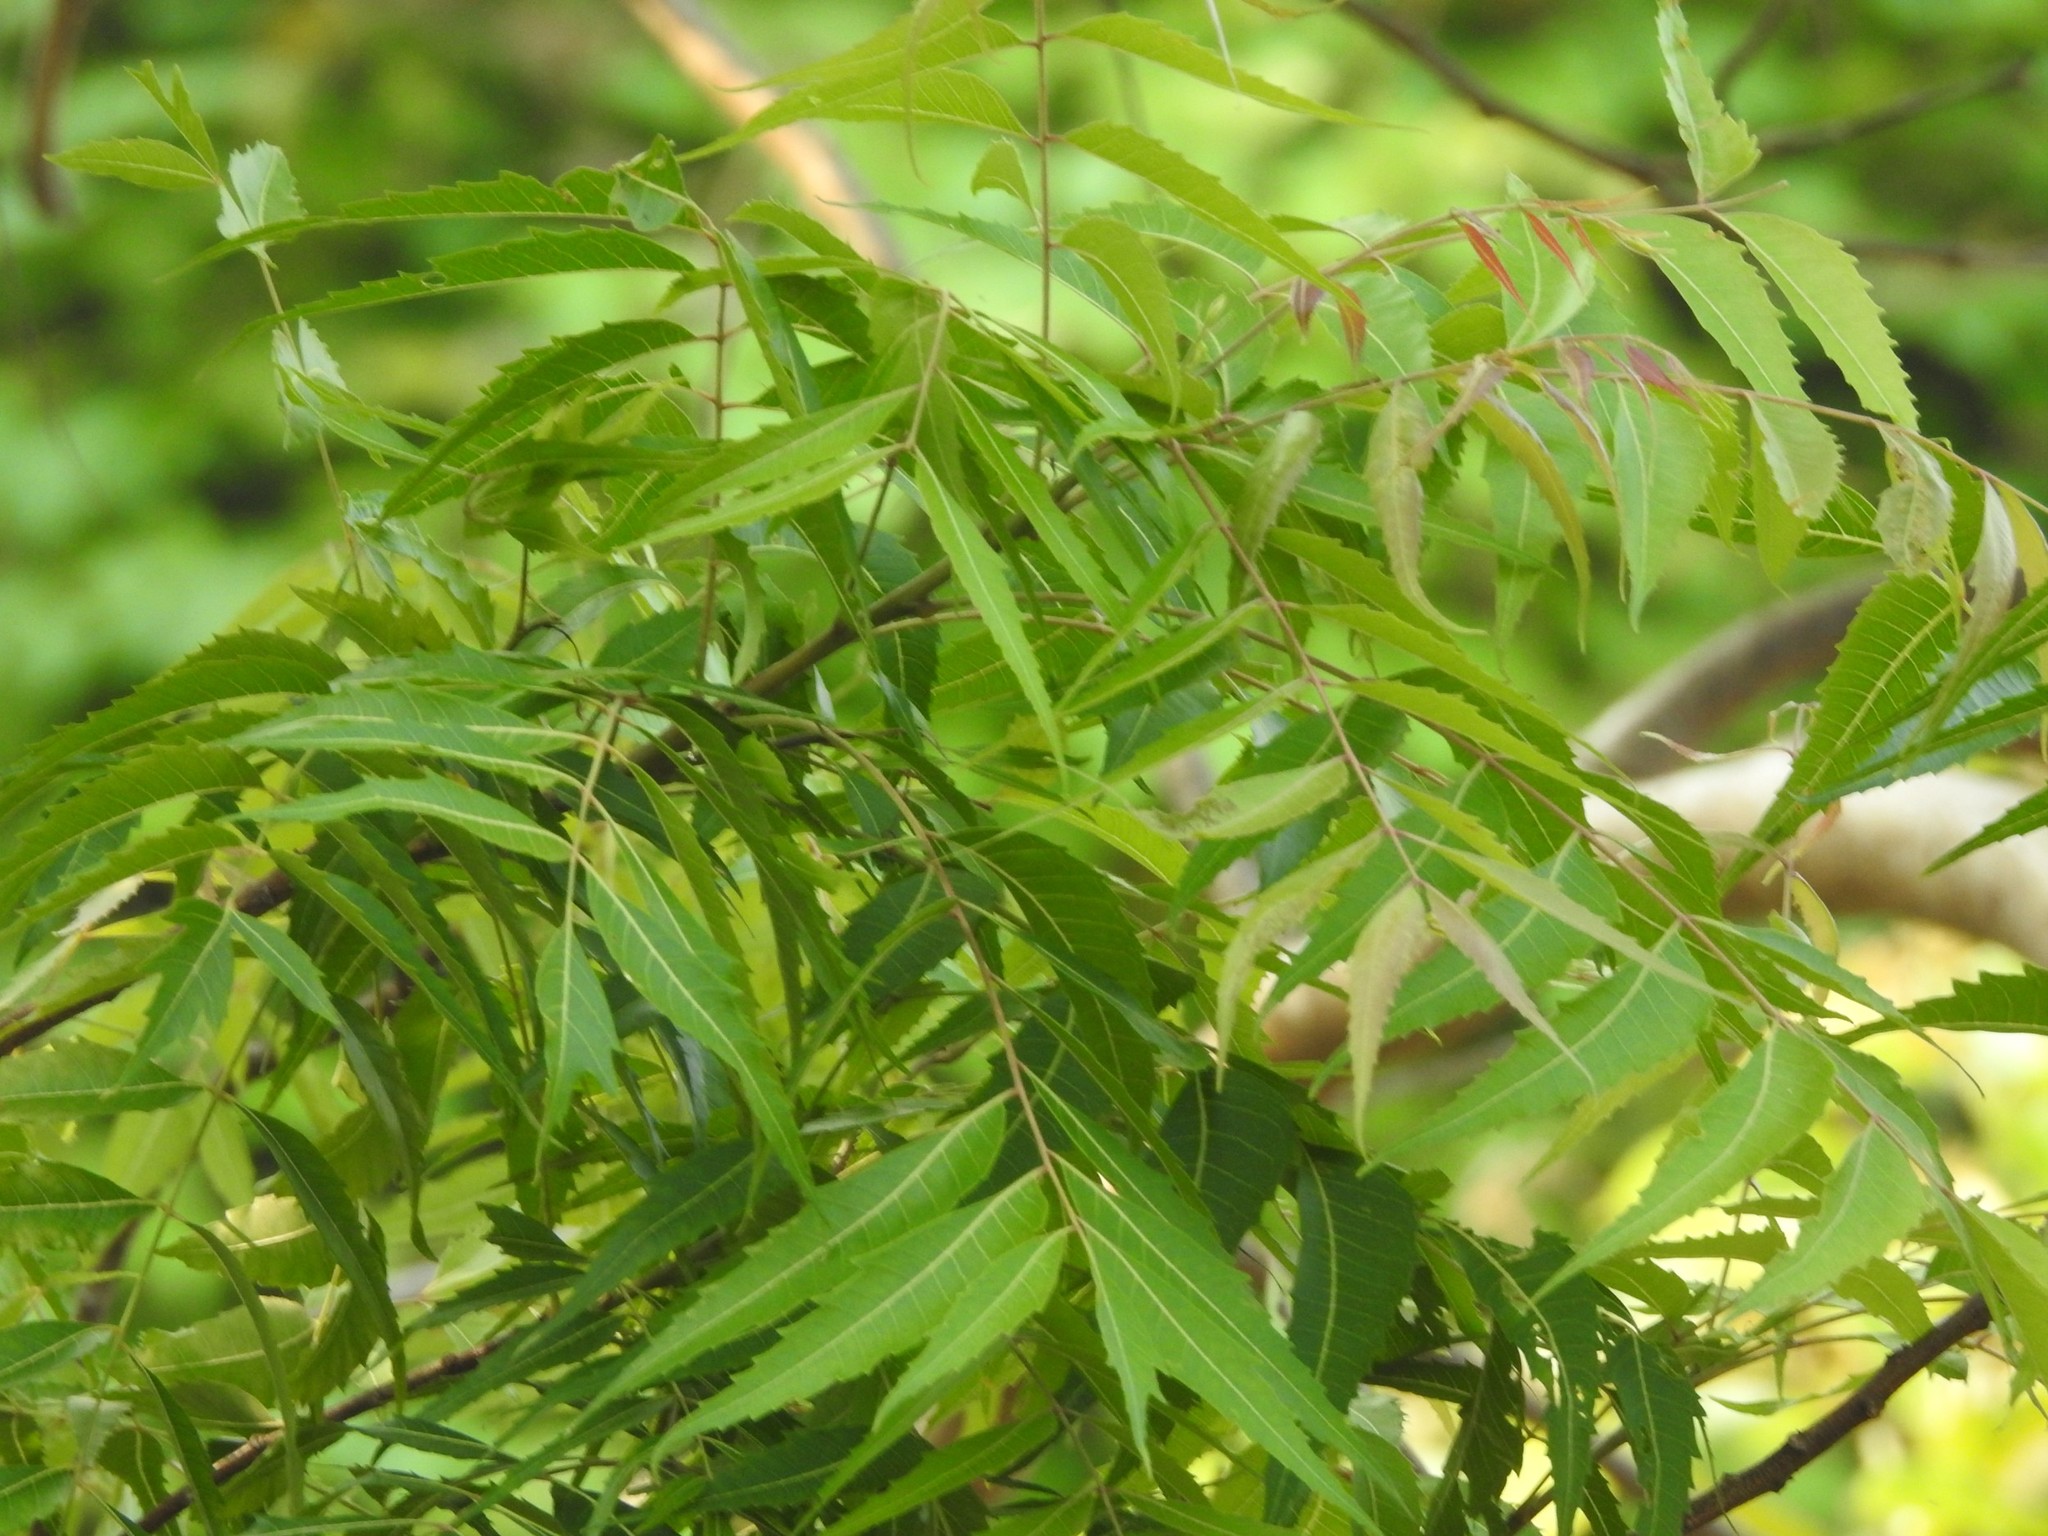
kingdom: Plantae
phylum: Tracheophyta
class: Magnoliopsida
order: Sapindales
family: Meliaceae
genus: Azadirachta
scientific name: Azadirachta indica
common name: Neem
